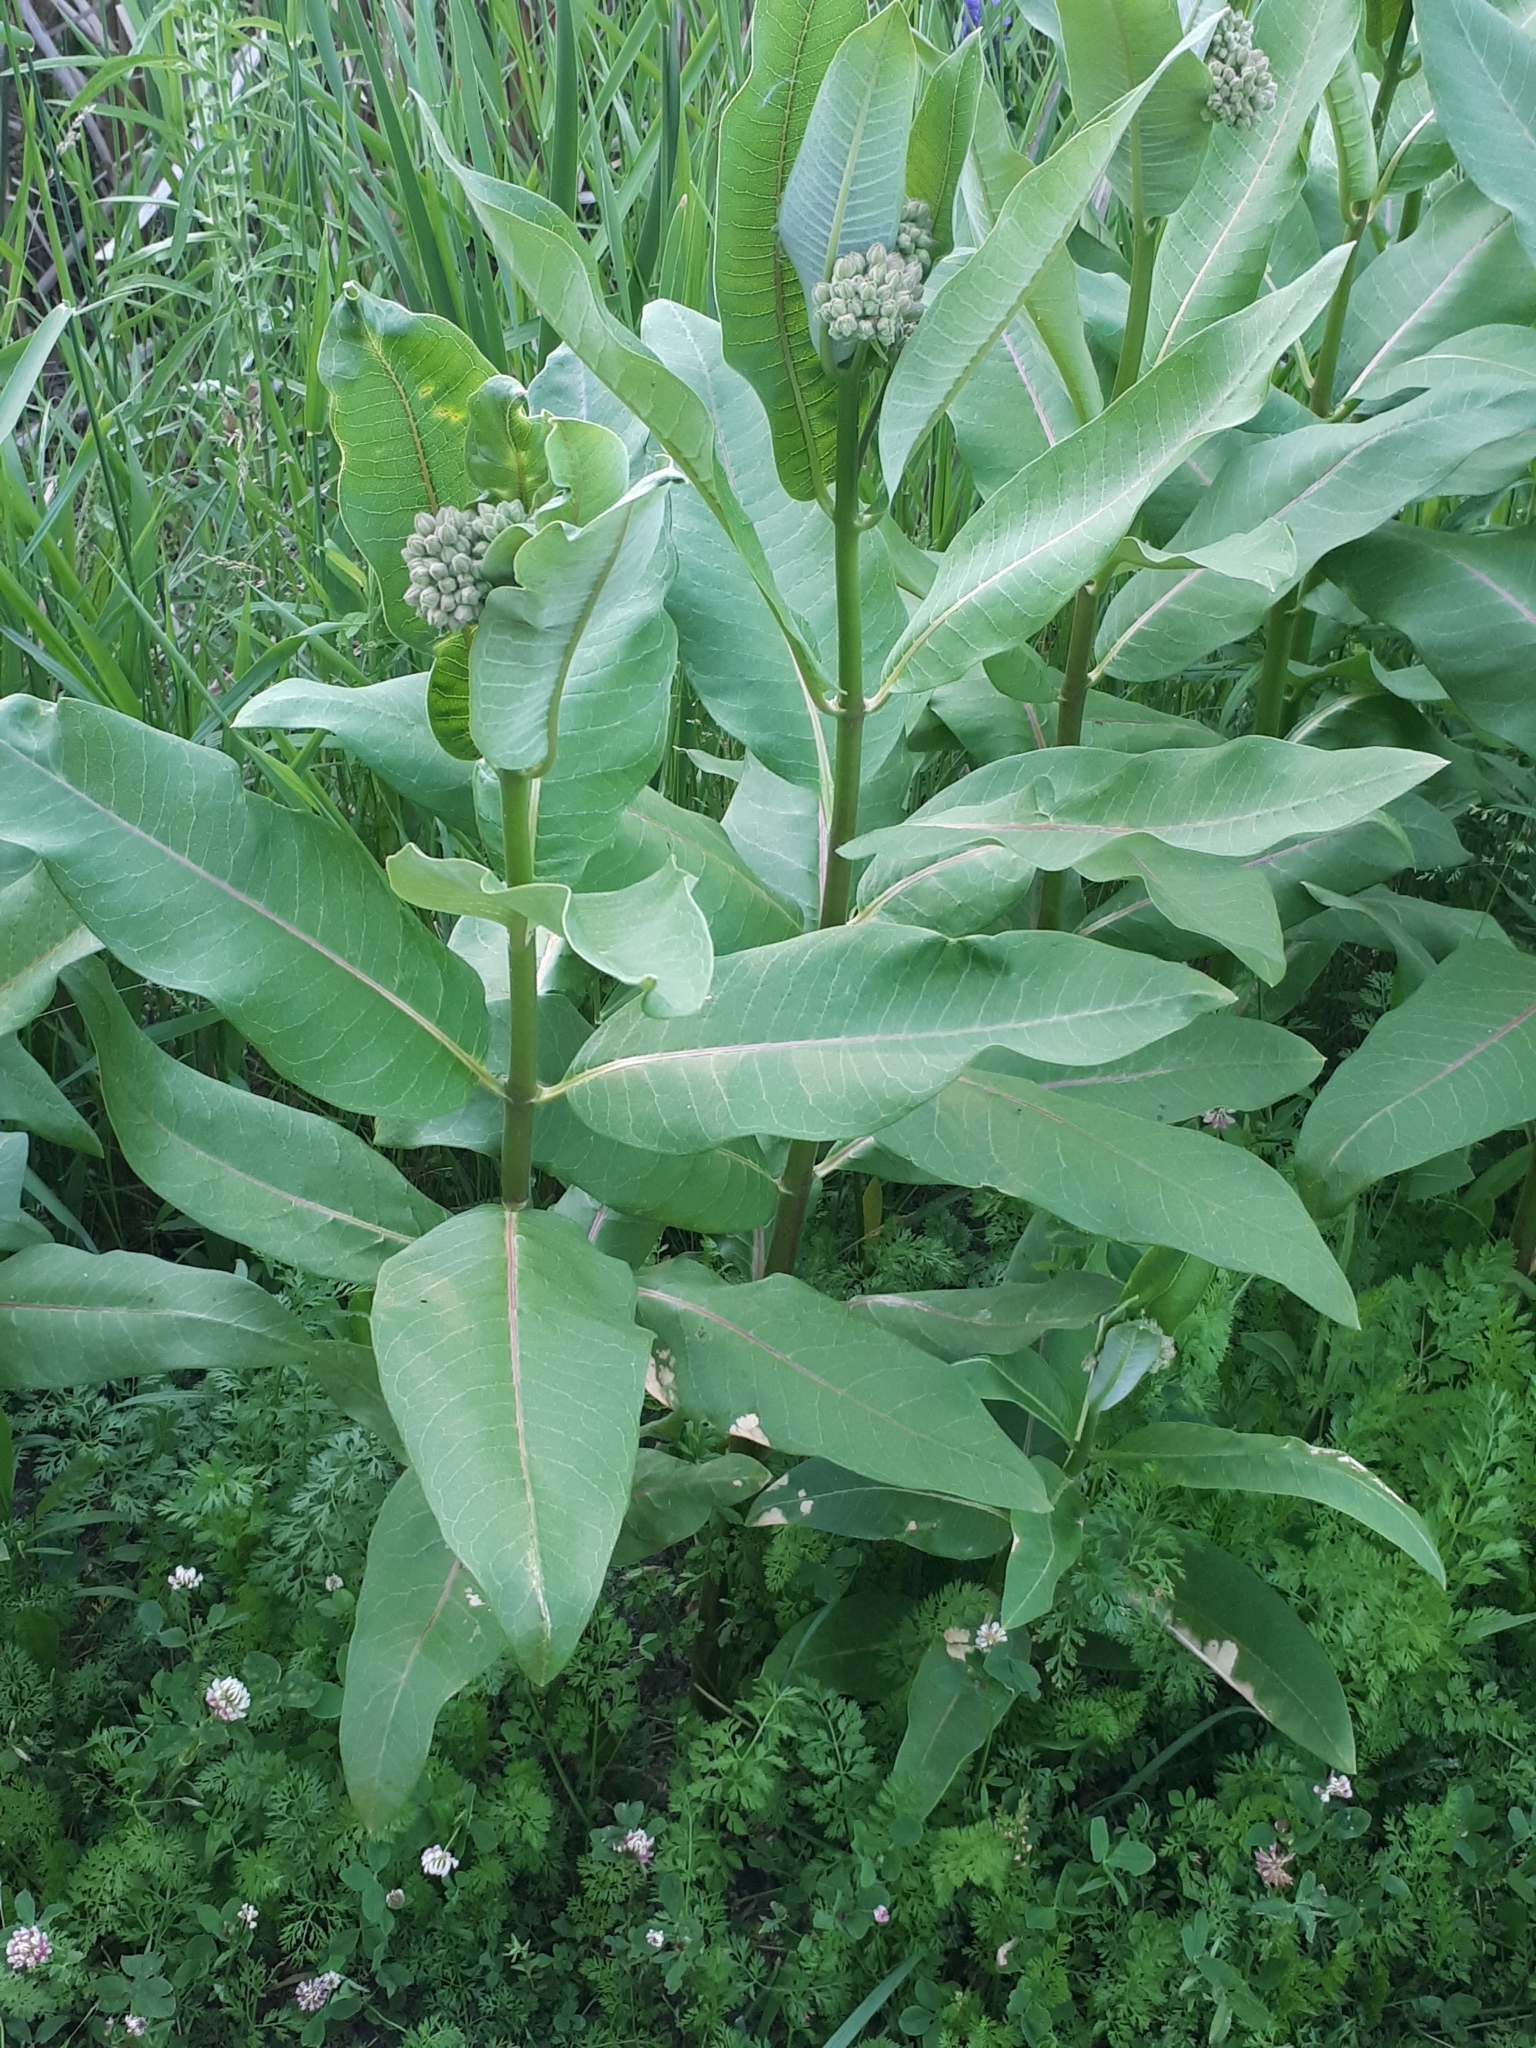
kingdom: Plantae
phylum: Tracheophyta
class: Magnoliopsida
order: Gentianales
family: Apocynaceae
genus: Asclepias
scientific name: Asclepias syriaca
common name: Common milkweed
